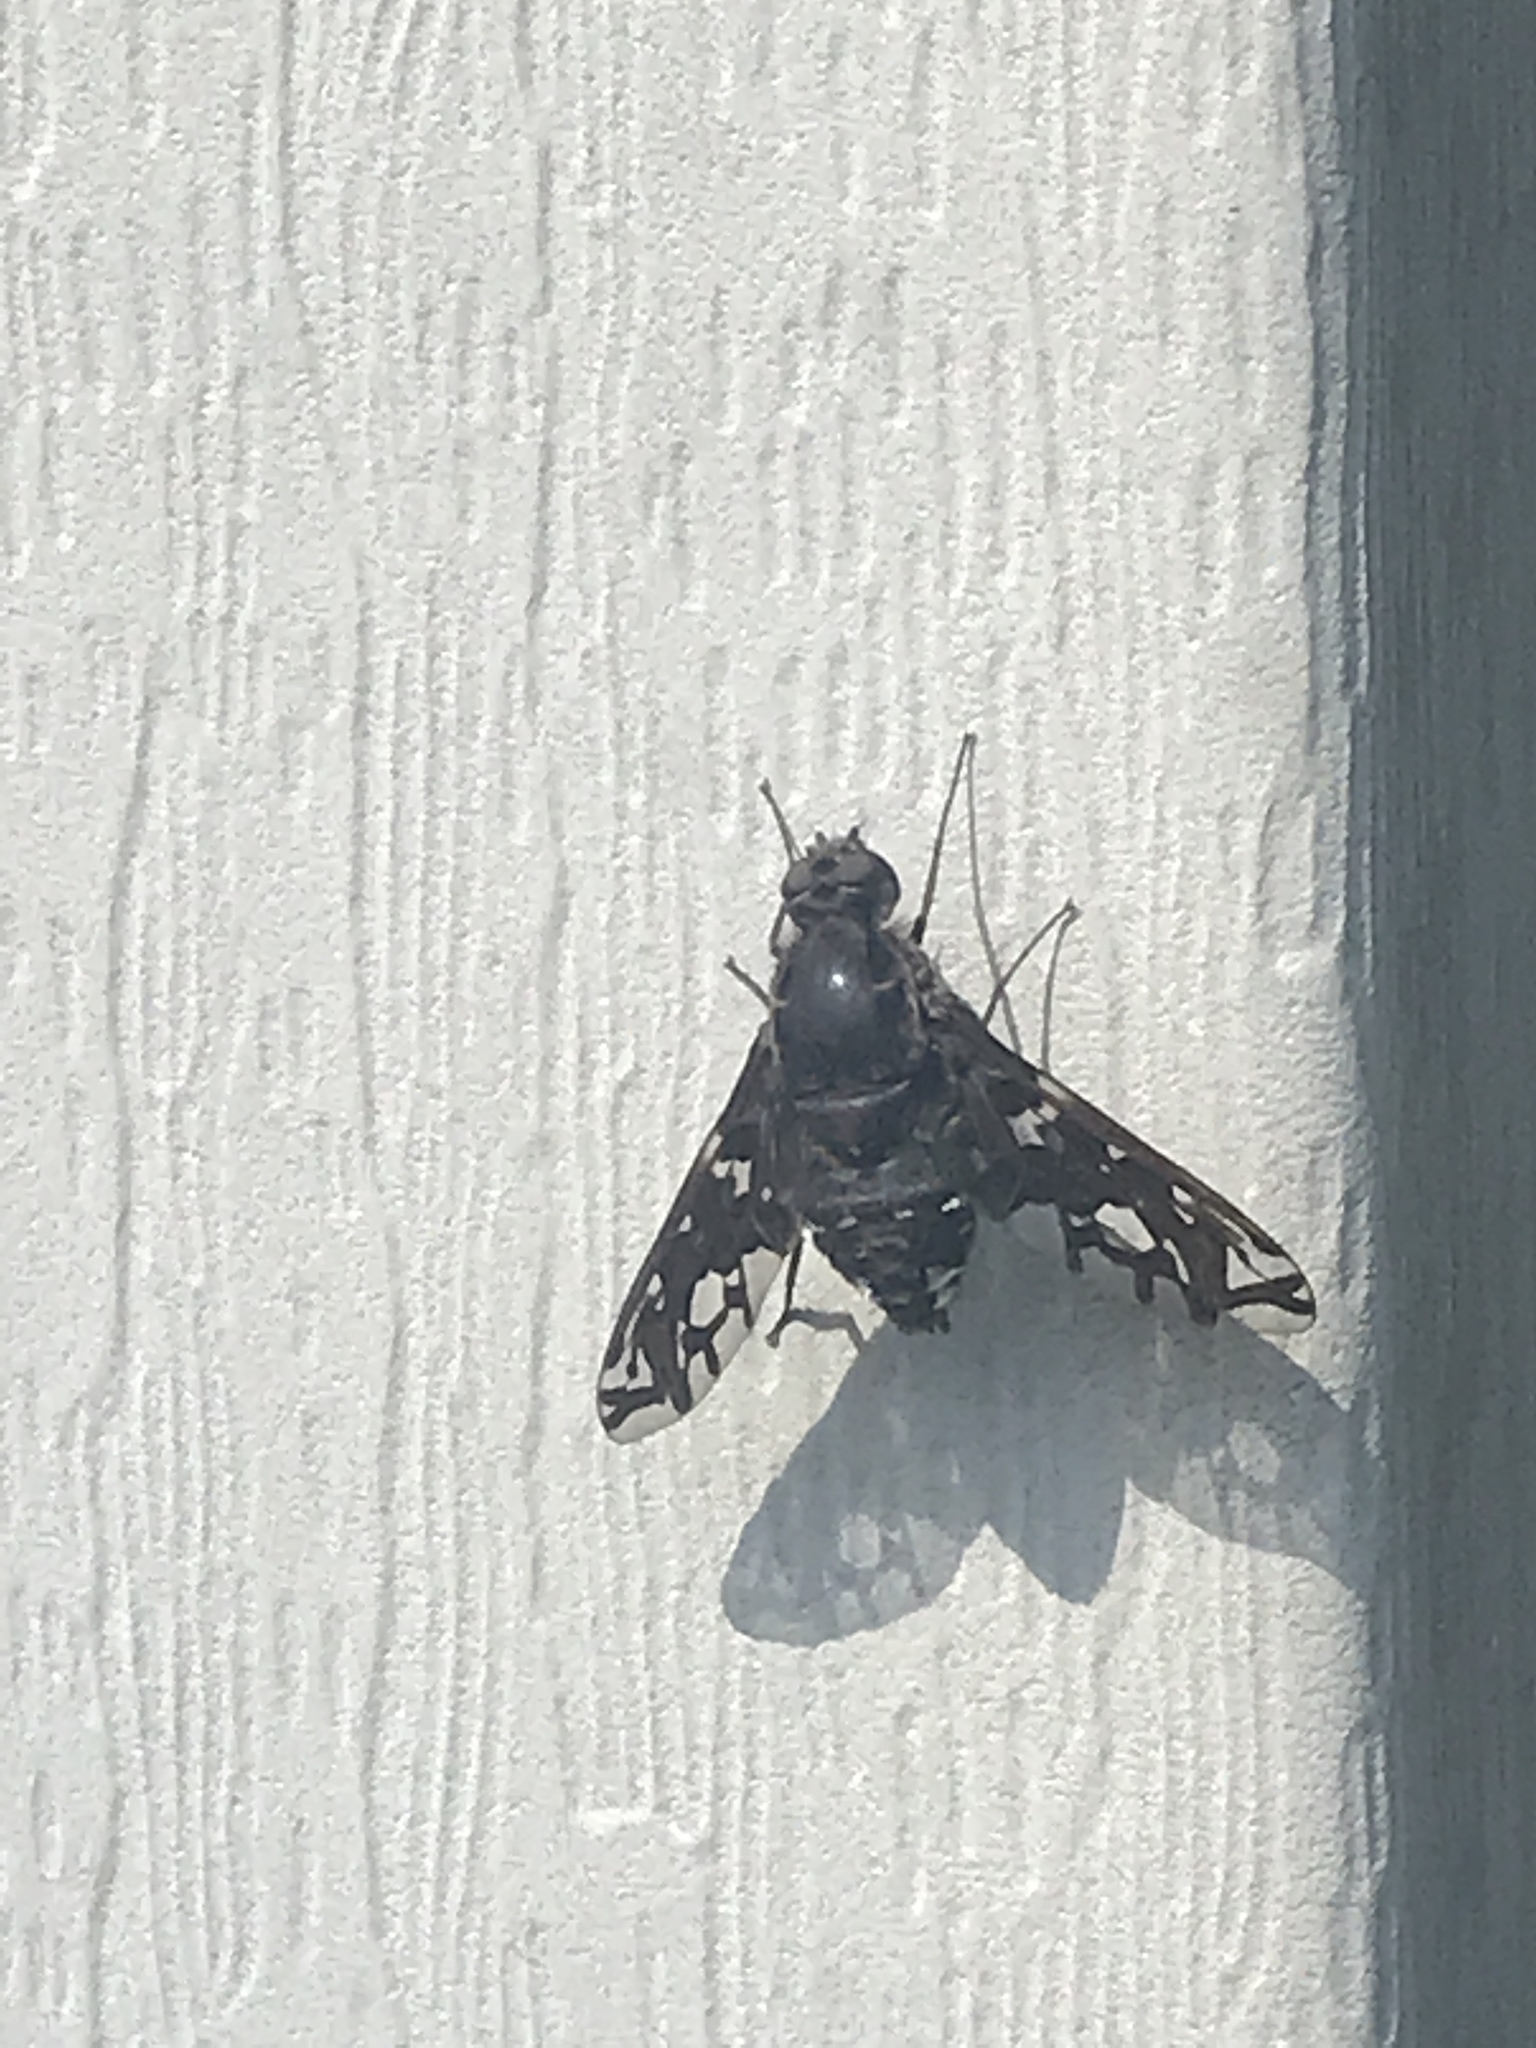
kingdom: Animalia
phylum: Arthropoda
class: Insecta
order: Diptera
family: Bombyliidae
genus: Xenox
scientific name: Xenox tigrinus
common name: Tiger bee fly
